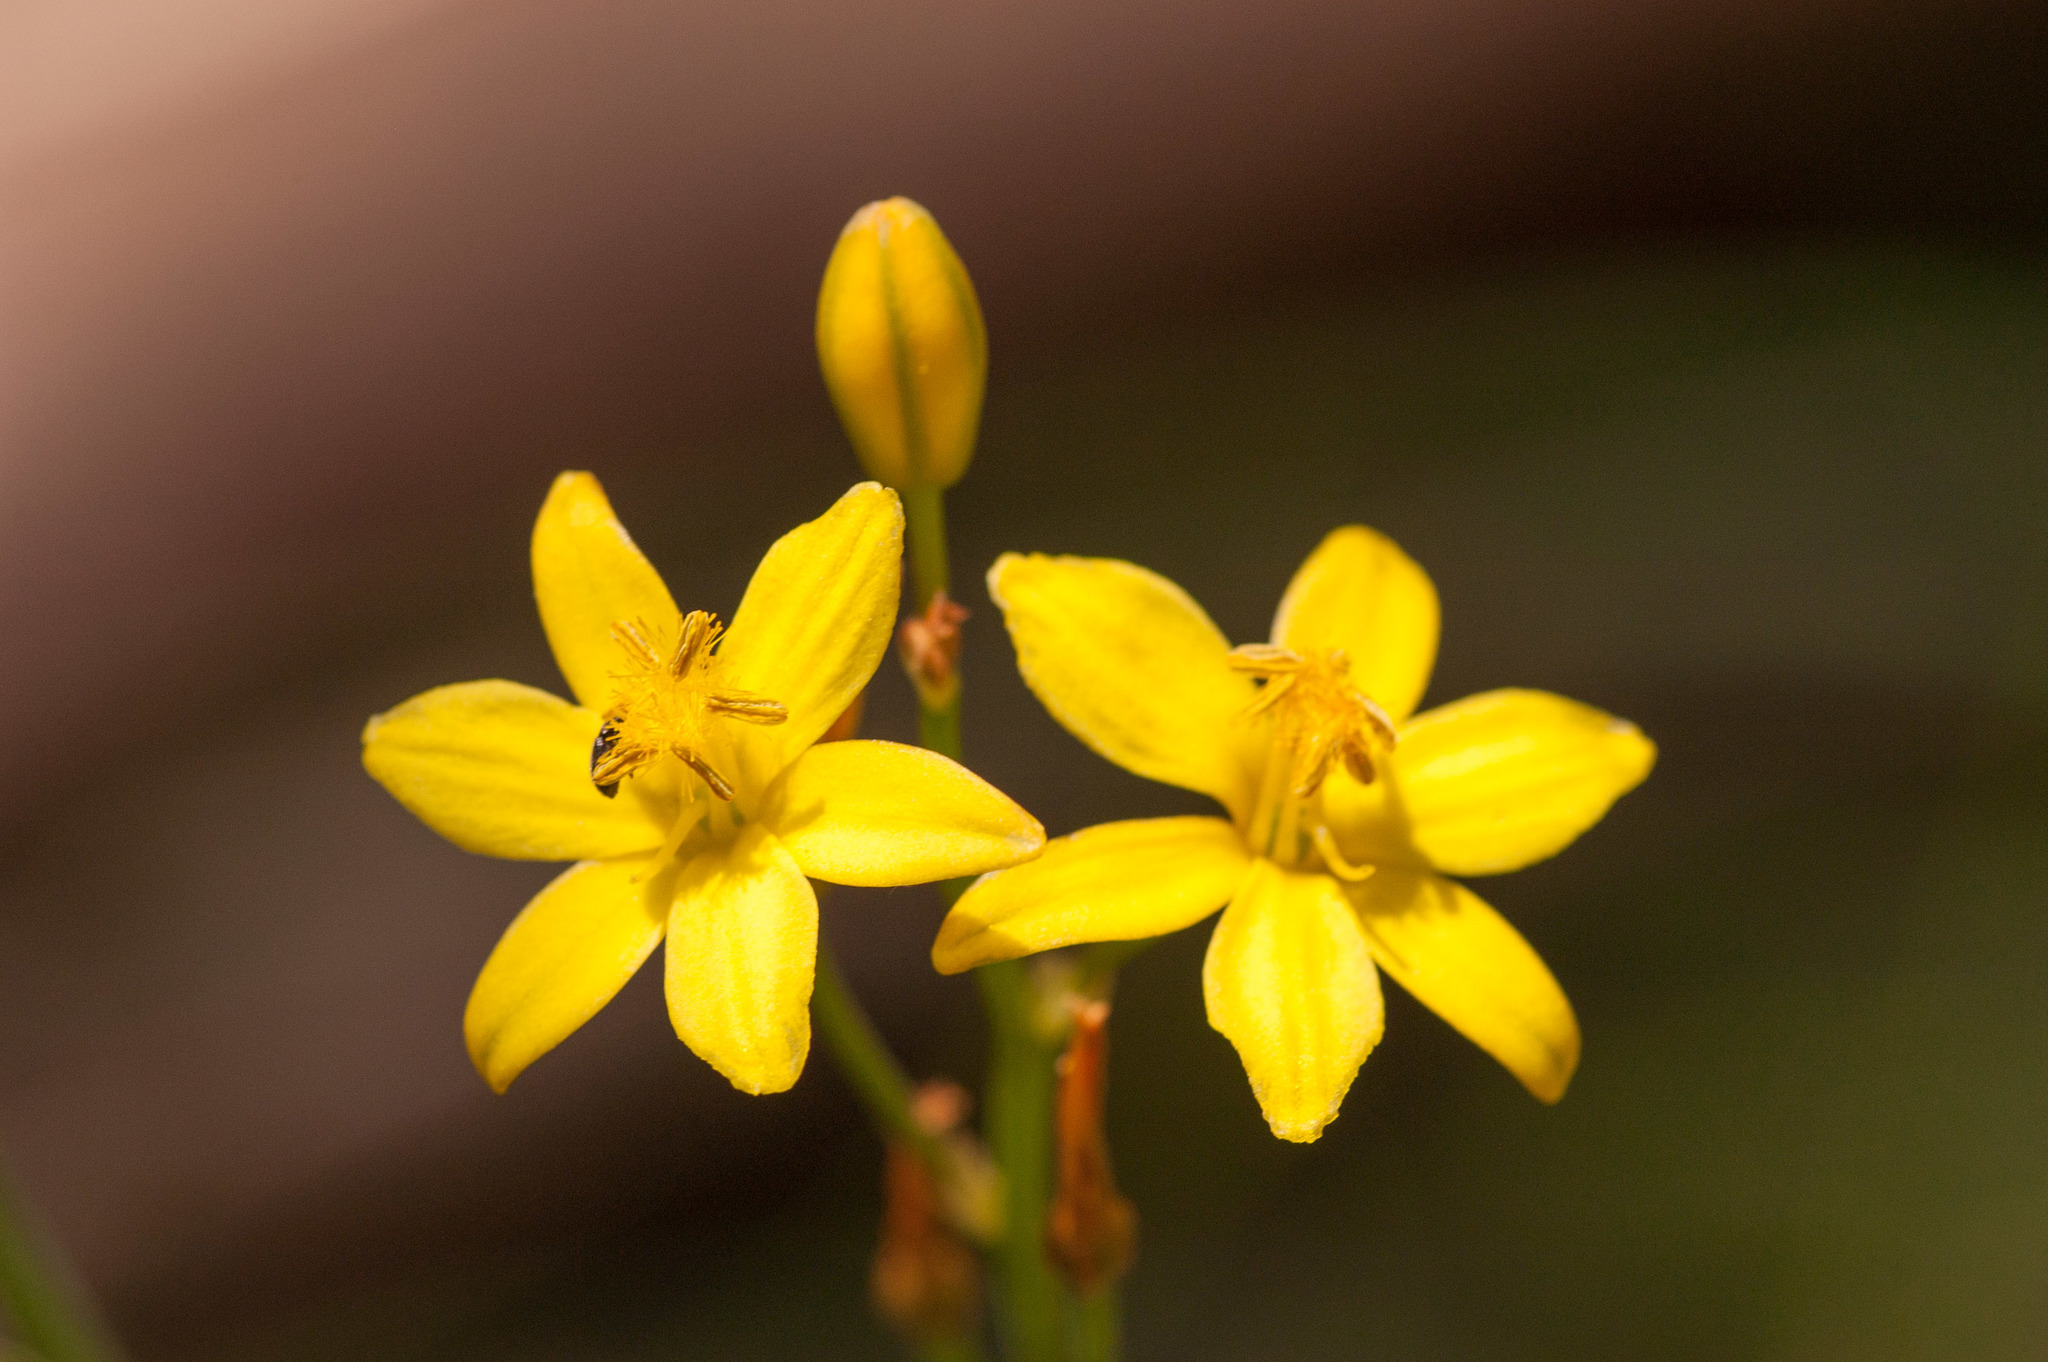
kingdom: Plantae
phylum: Tracheophyta
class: Liliopsida
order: Asparagales
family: Asphodelaceae
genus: Bulbine
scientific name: Bulbine bulbosa
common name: Golden-lily
